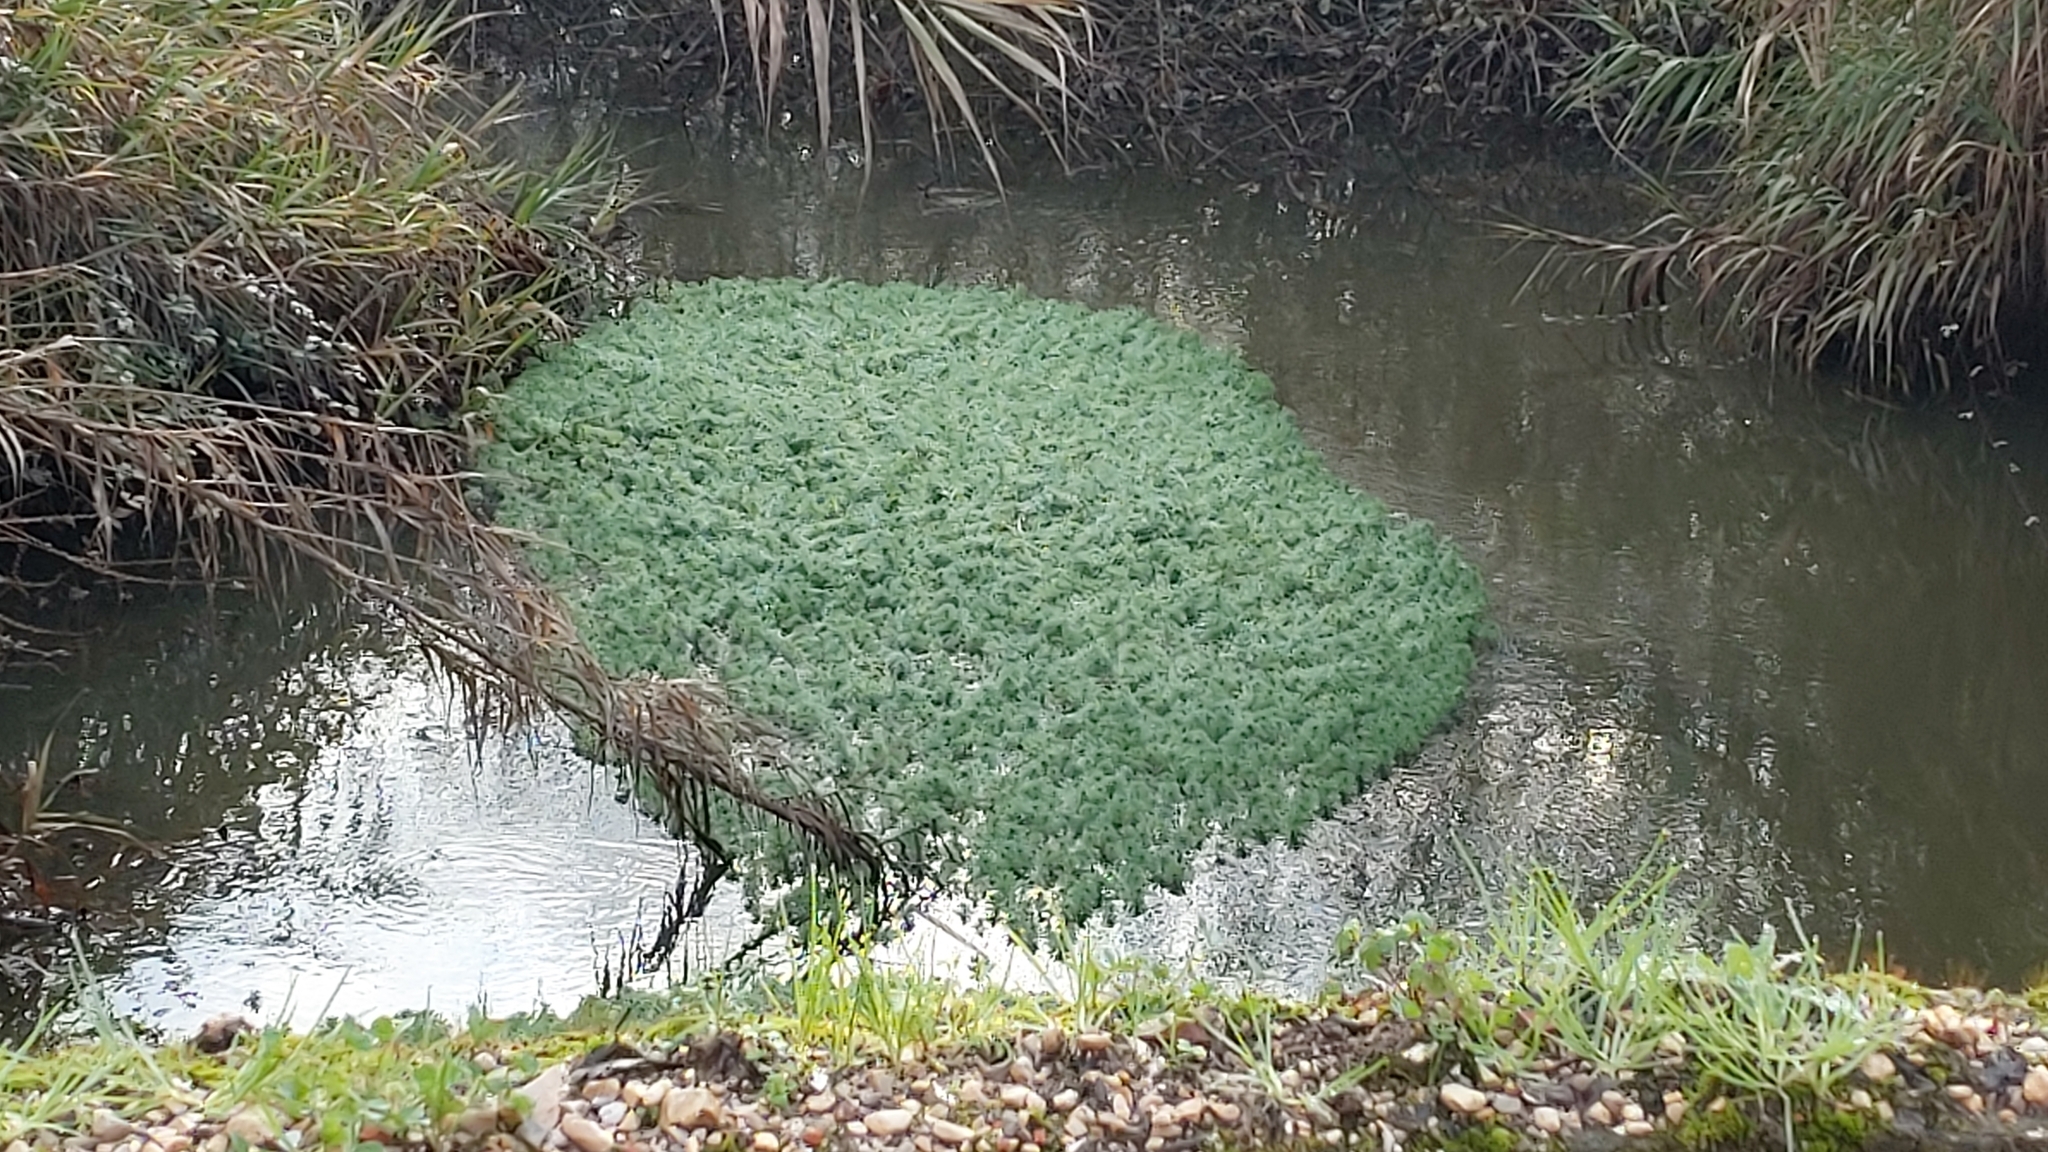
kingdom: Plantae
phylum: Tracheophyta
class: Magnoliopsida
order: Saxifragales
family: Haloragaceae
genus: Myriophyllum
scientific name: Myriophyllum aquaticum
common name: Parrot's feather
